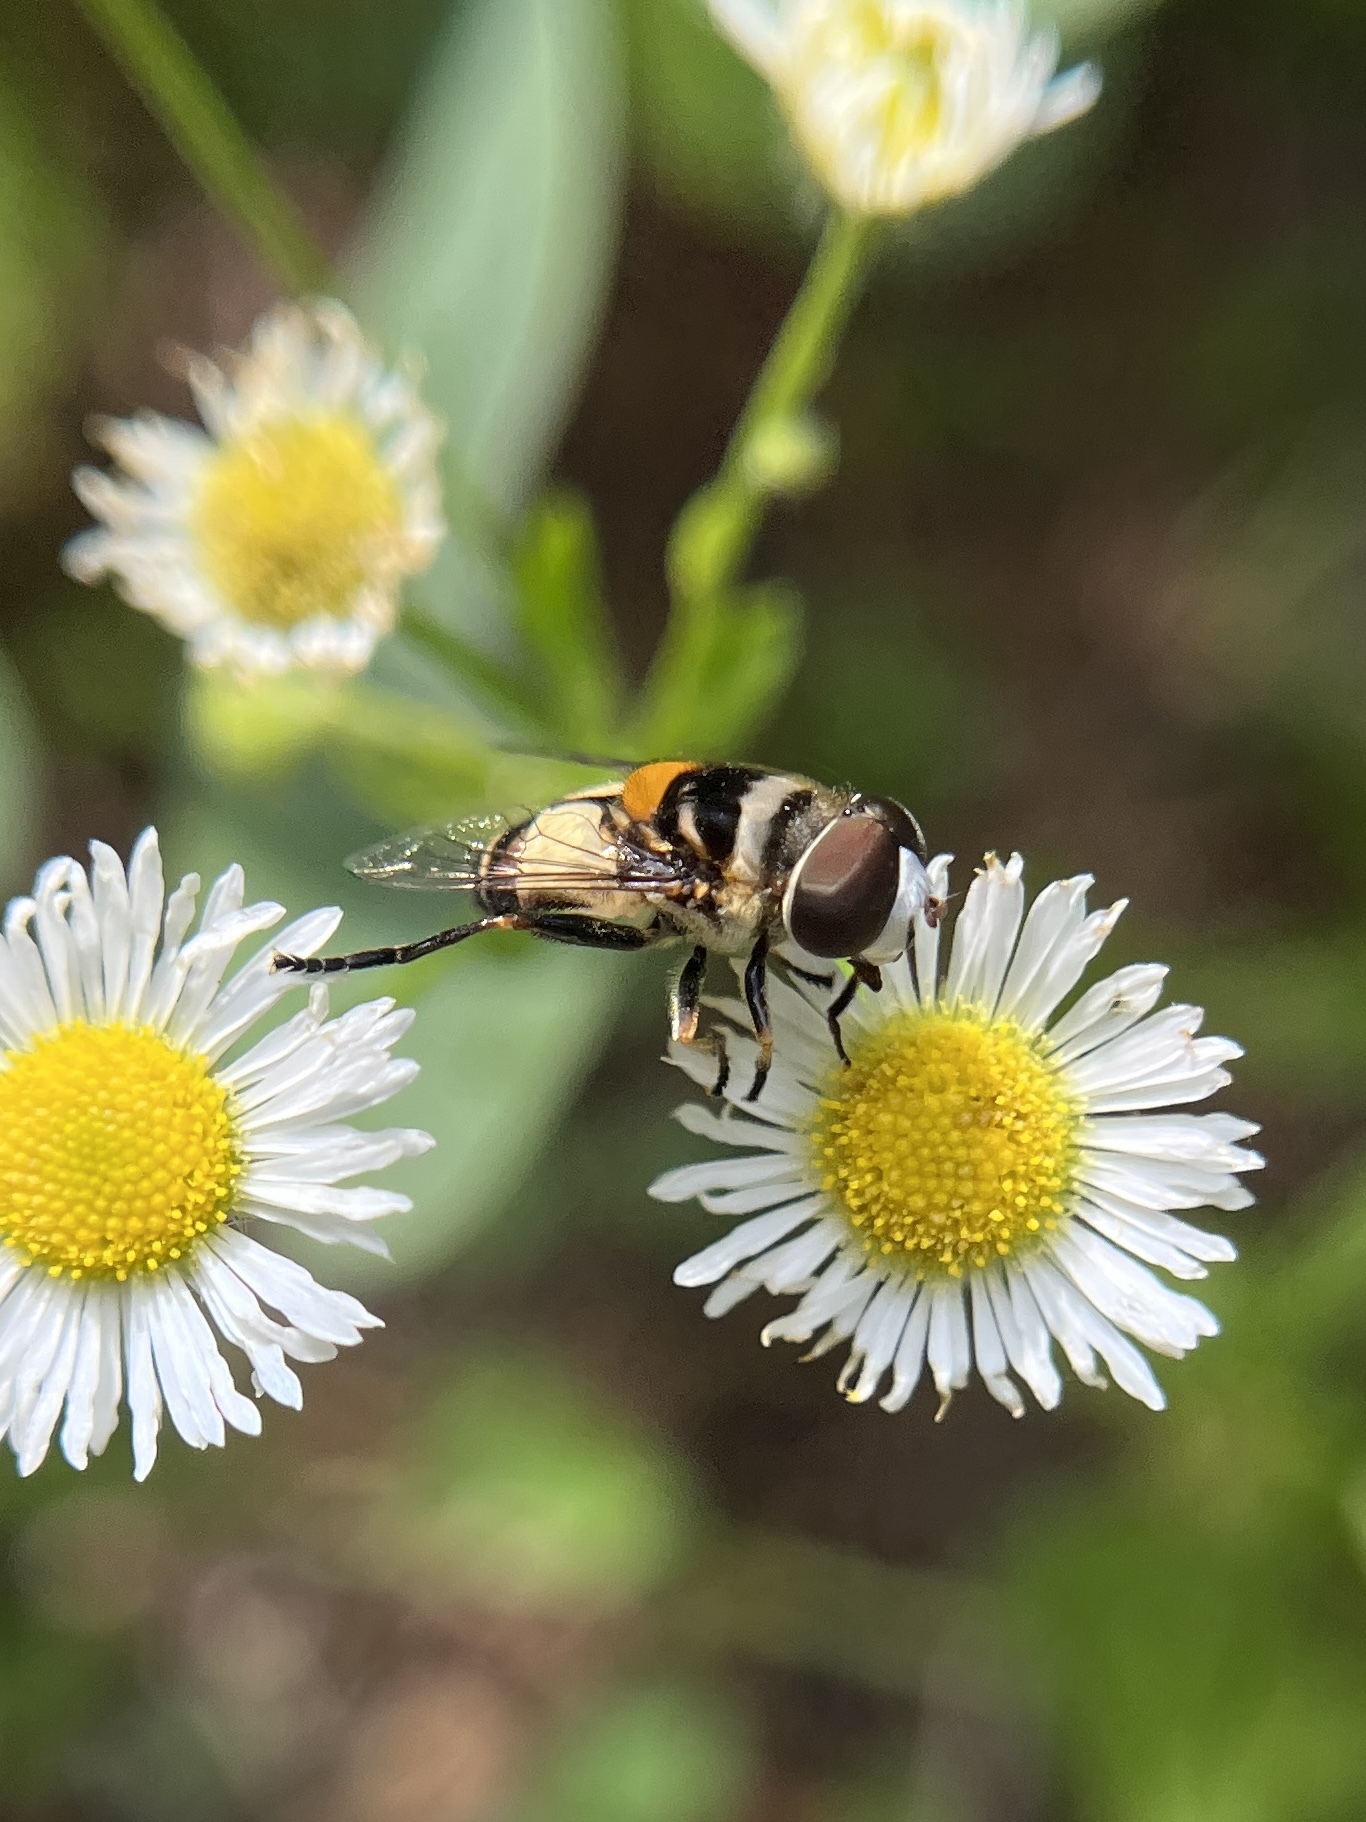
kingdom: Animalia
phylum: Arthropoda
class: Insecta
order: Diptera
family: Syrphidae
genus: Palpada
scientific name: Palpada albifrons
